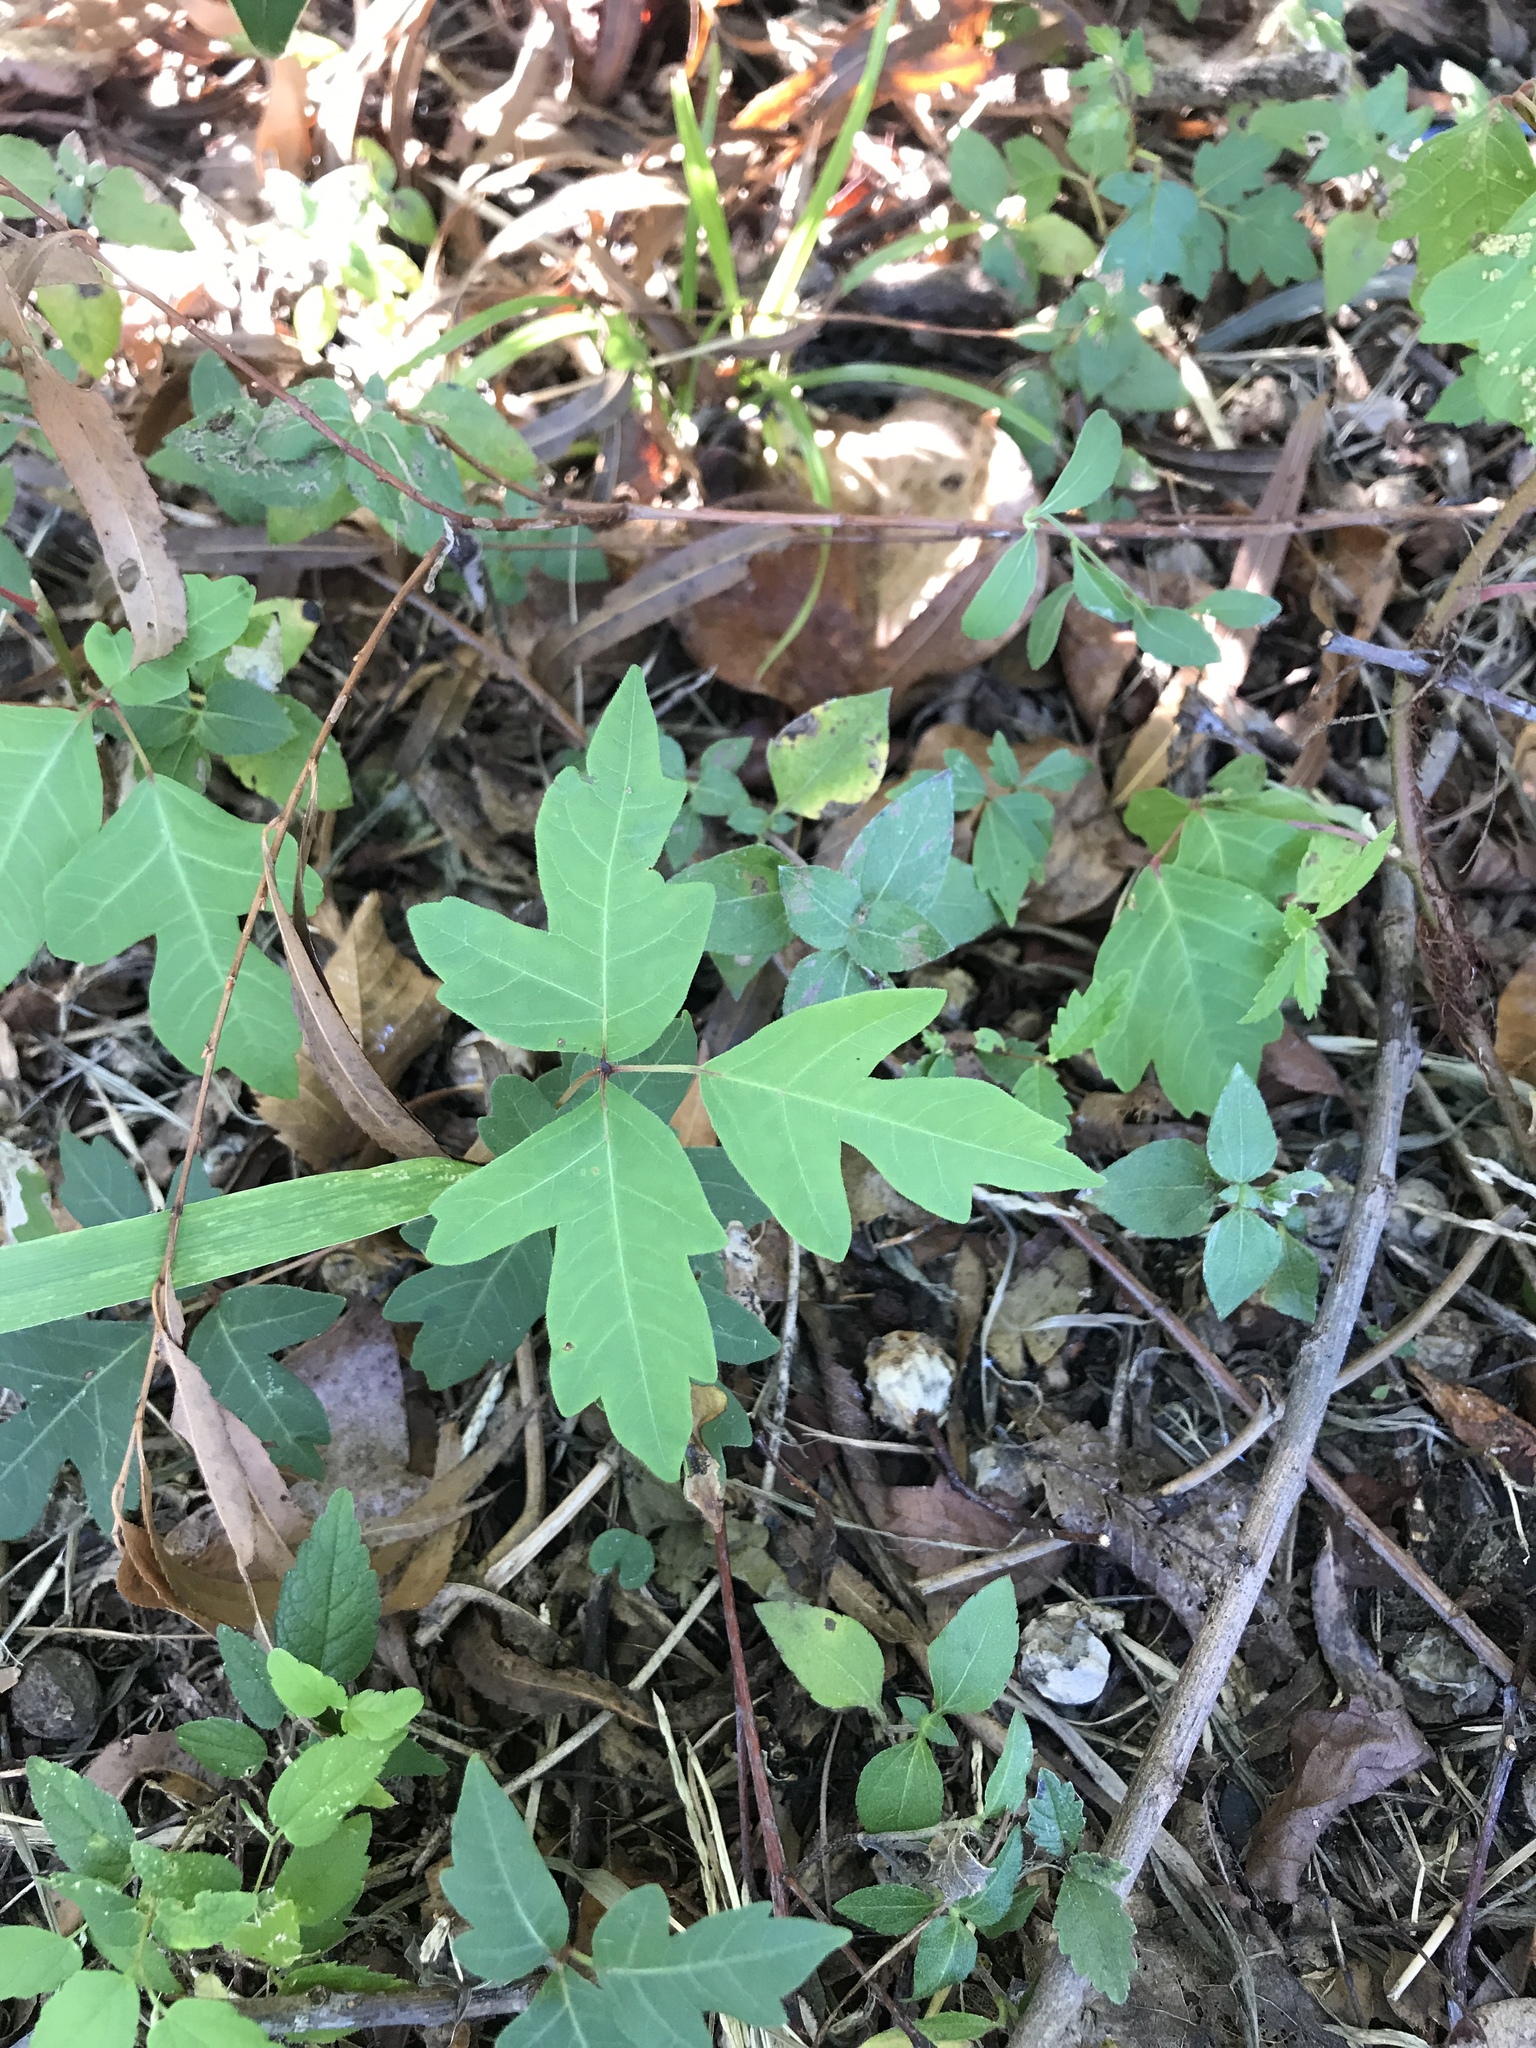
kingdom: Plantae
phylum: Tracheophyta
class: Magnoliopsida
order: Sapindales
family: Anacardiaceae
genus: Toxicodendron
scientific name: Toxicodendron radicans
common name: Poison ivy
